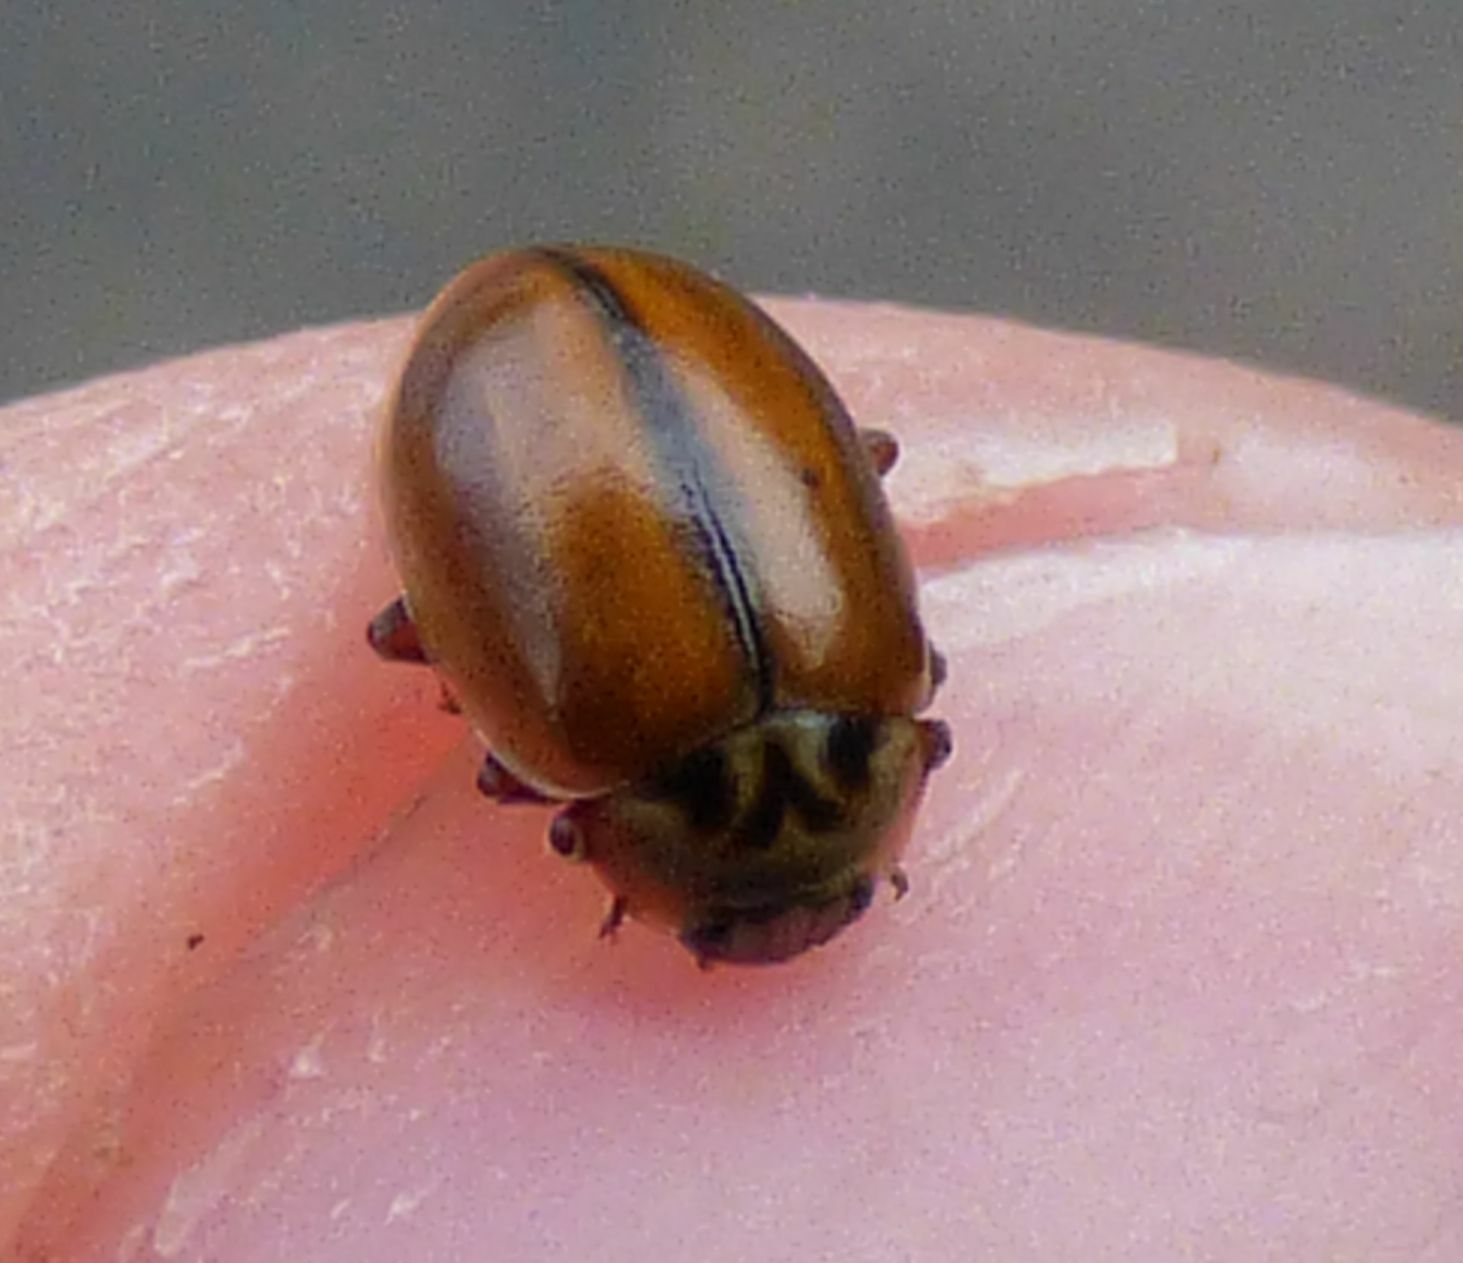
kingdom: Animalia
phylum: Arthropoda
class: Insecta
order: Coleoptera
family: Coccinellidae
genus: Aphidecta
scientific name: Aphidecta obliterata
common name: Larch ladybird
